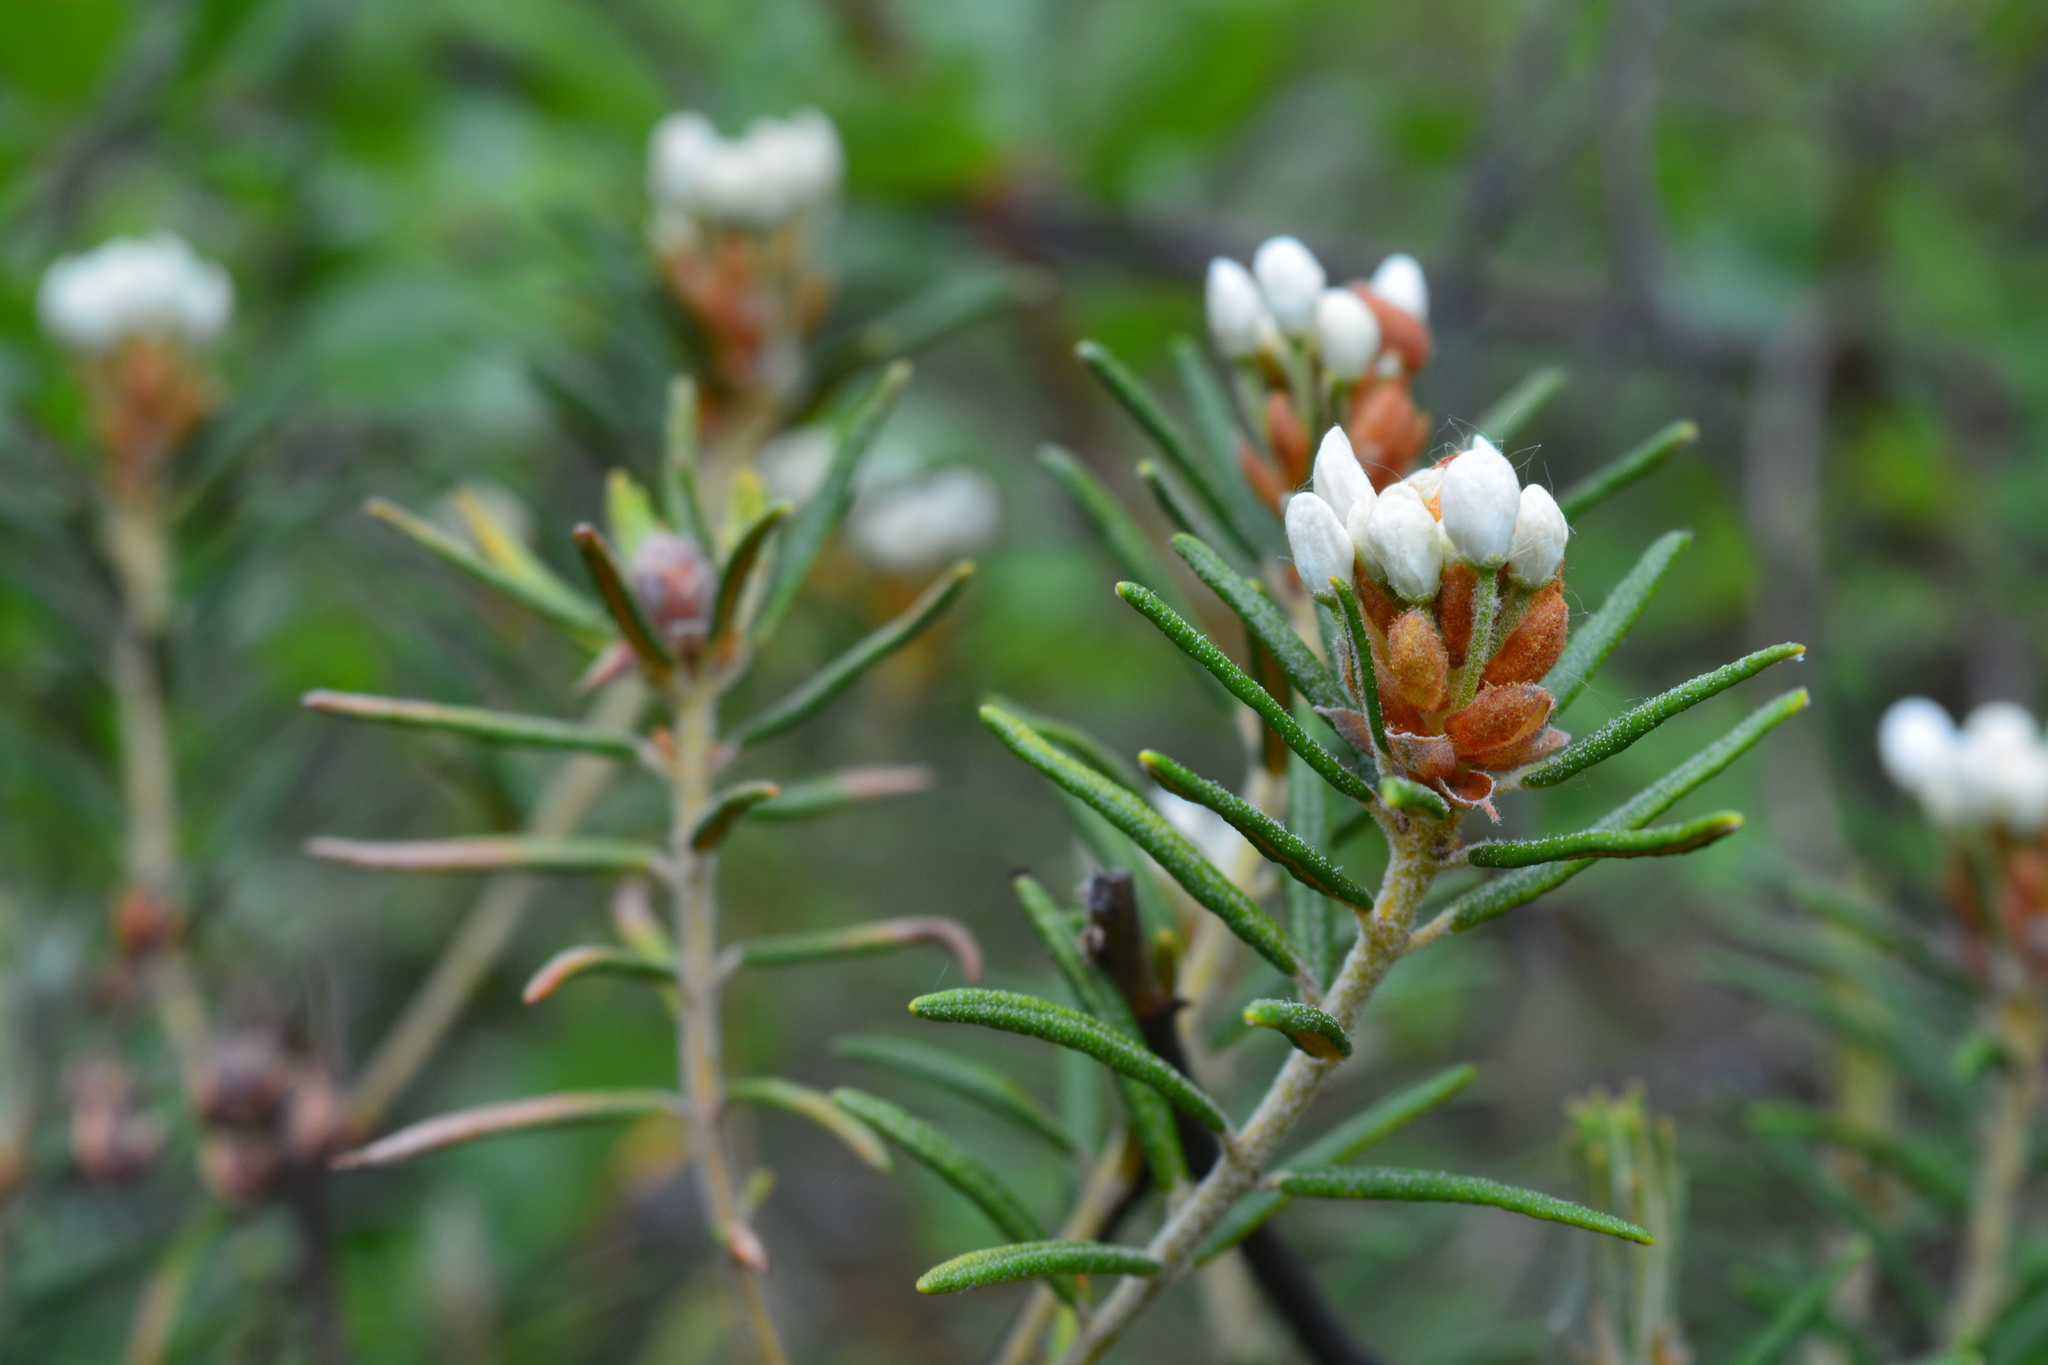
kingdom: Plantae
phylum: Tracheophyta
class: Magnoliopsida
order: Ericales
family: Ericaceae
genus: Rhododendron
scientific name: Rhododendron tomentosum
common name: Marsh labrador tea
